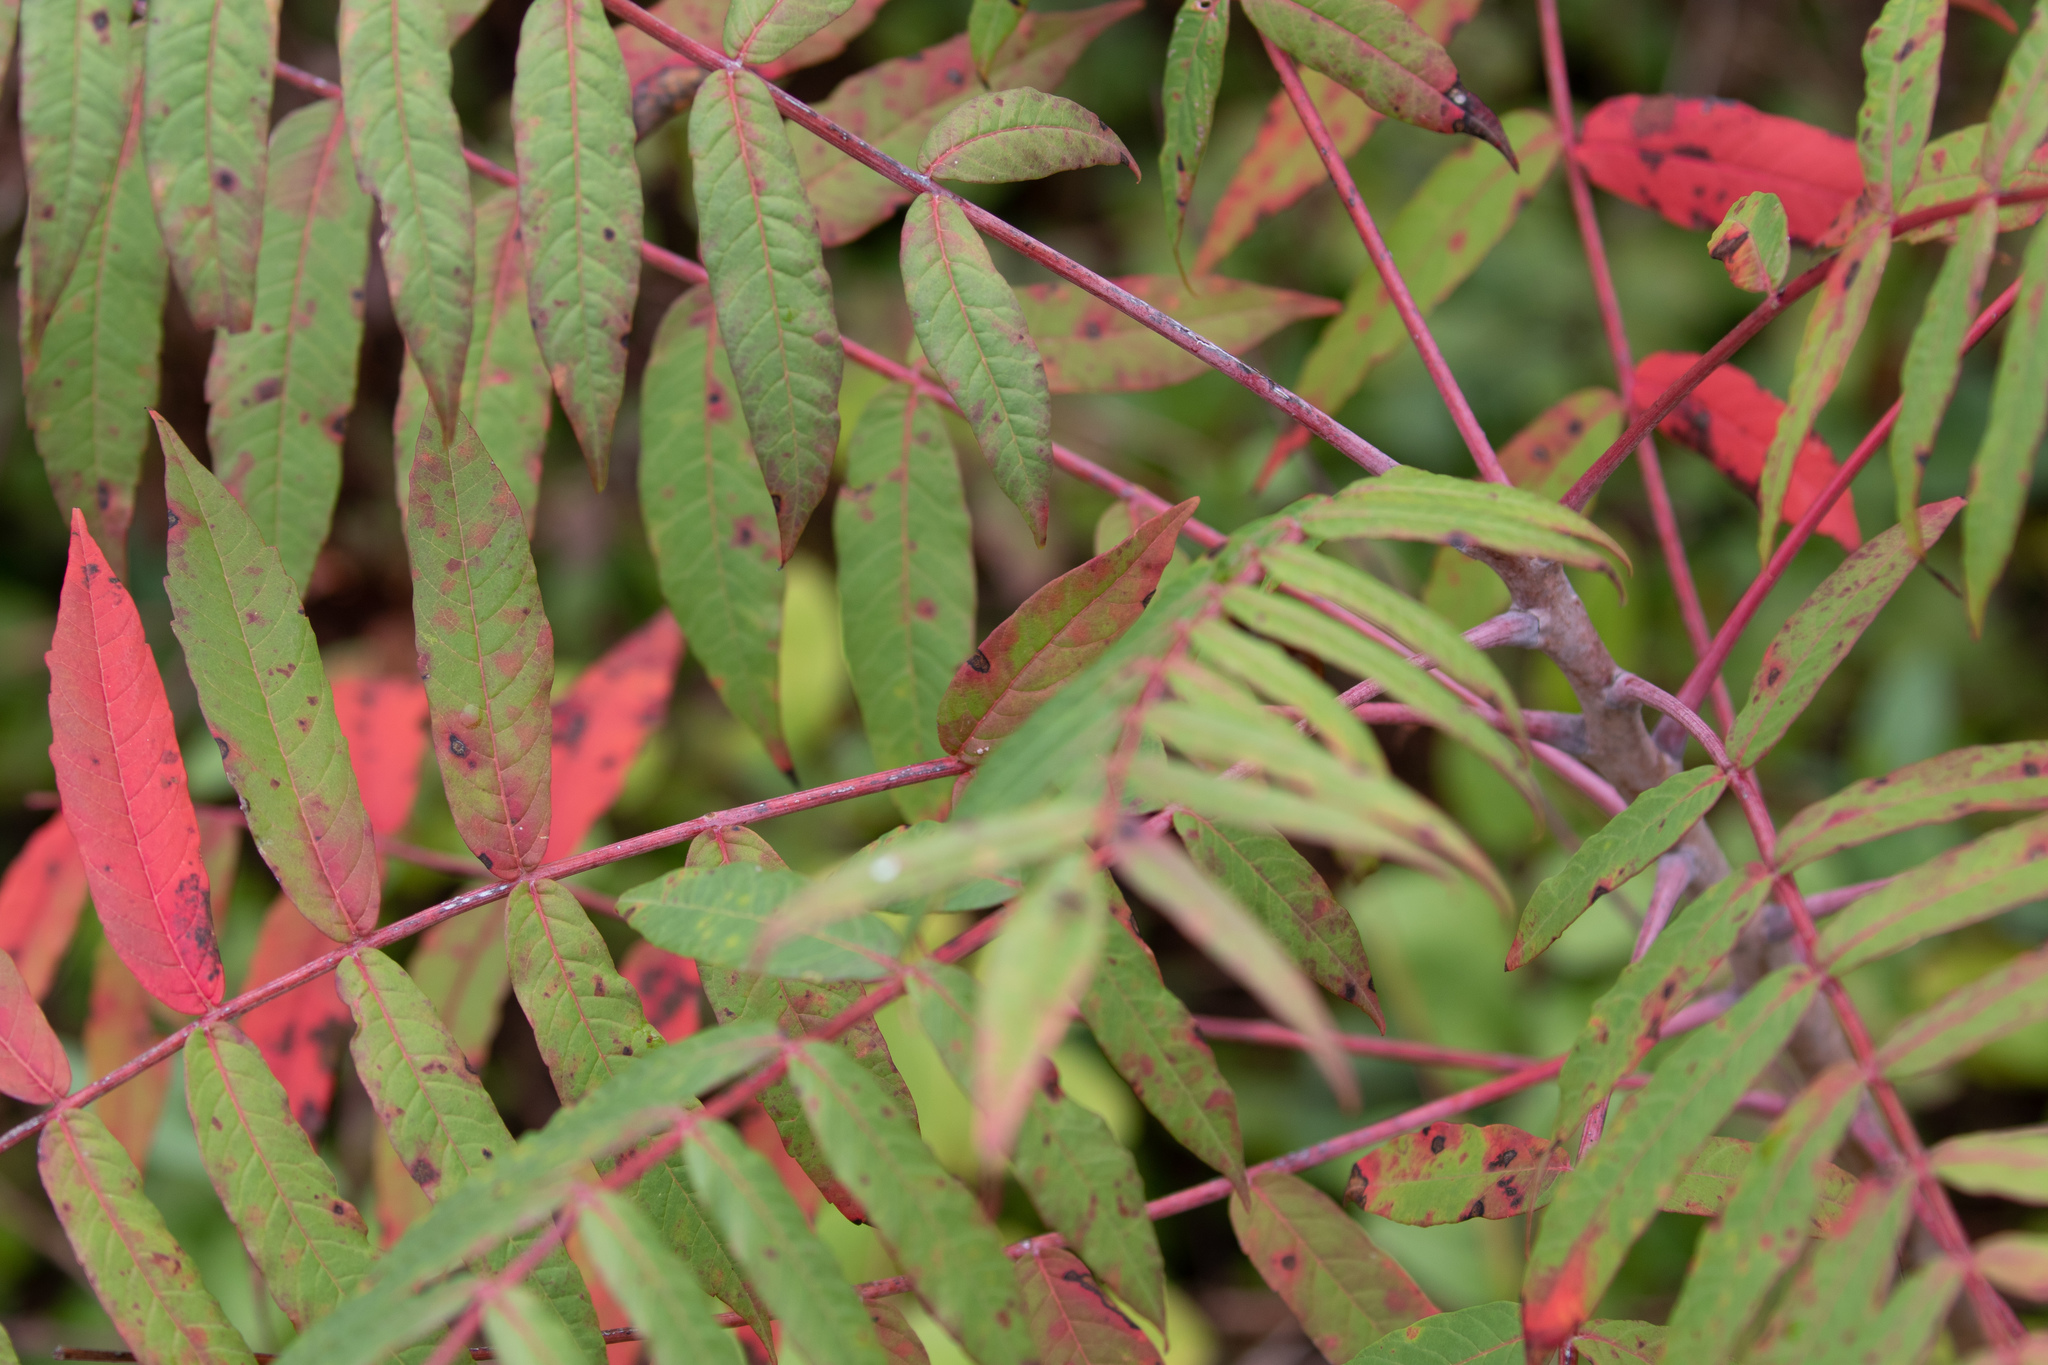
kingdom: Plantae
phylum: Tracheophyta
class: Magnoliopsida
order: Sapindales
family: Anacardiaceae
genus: Rhus
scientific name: Rhus glabra
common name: Scarlet sumac
